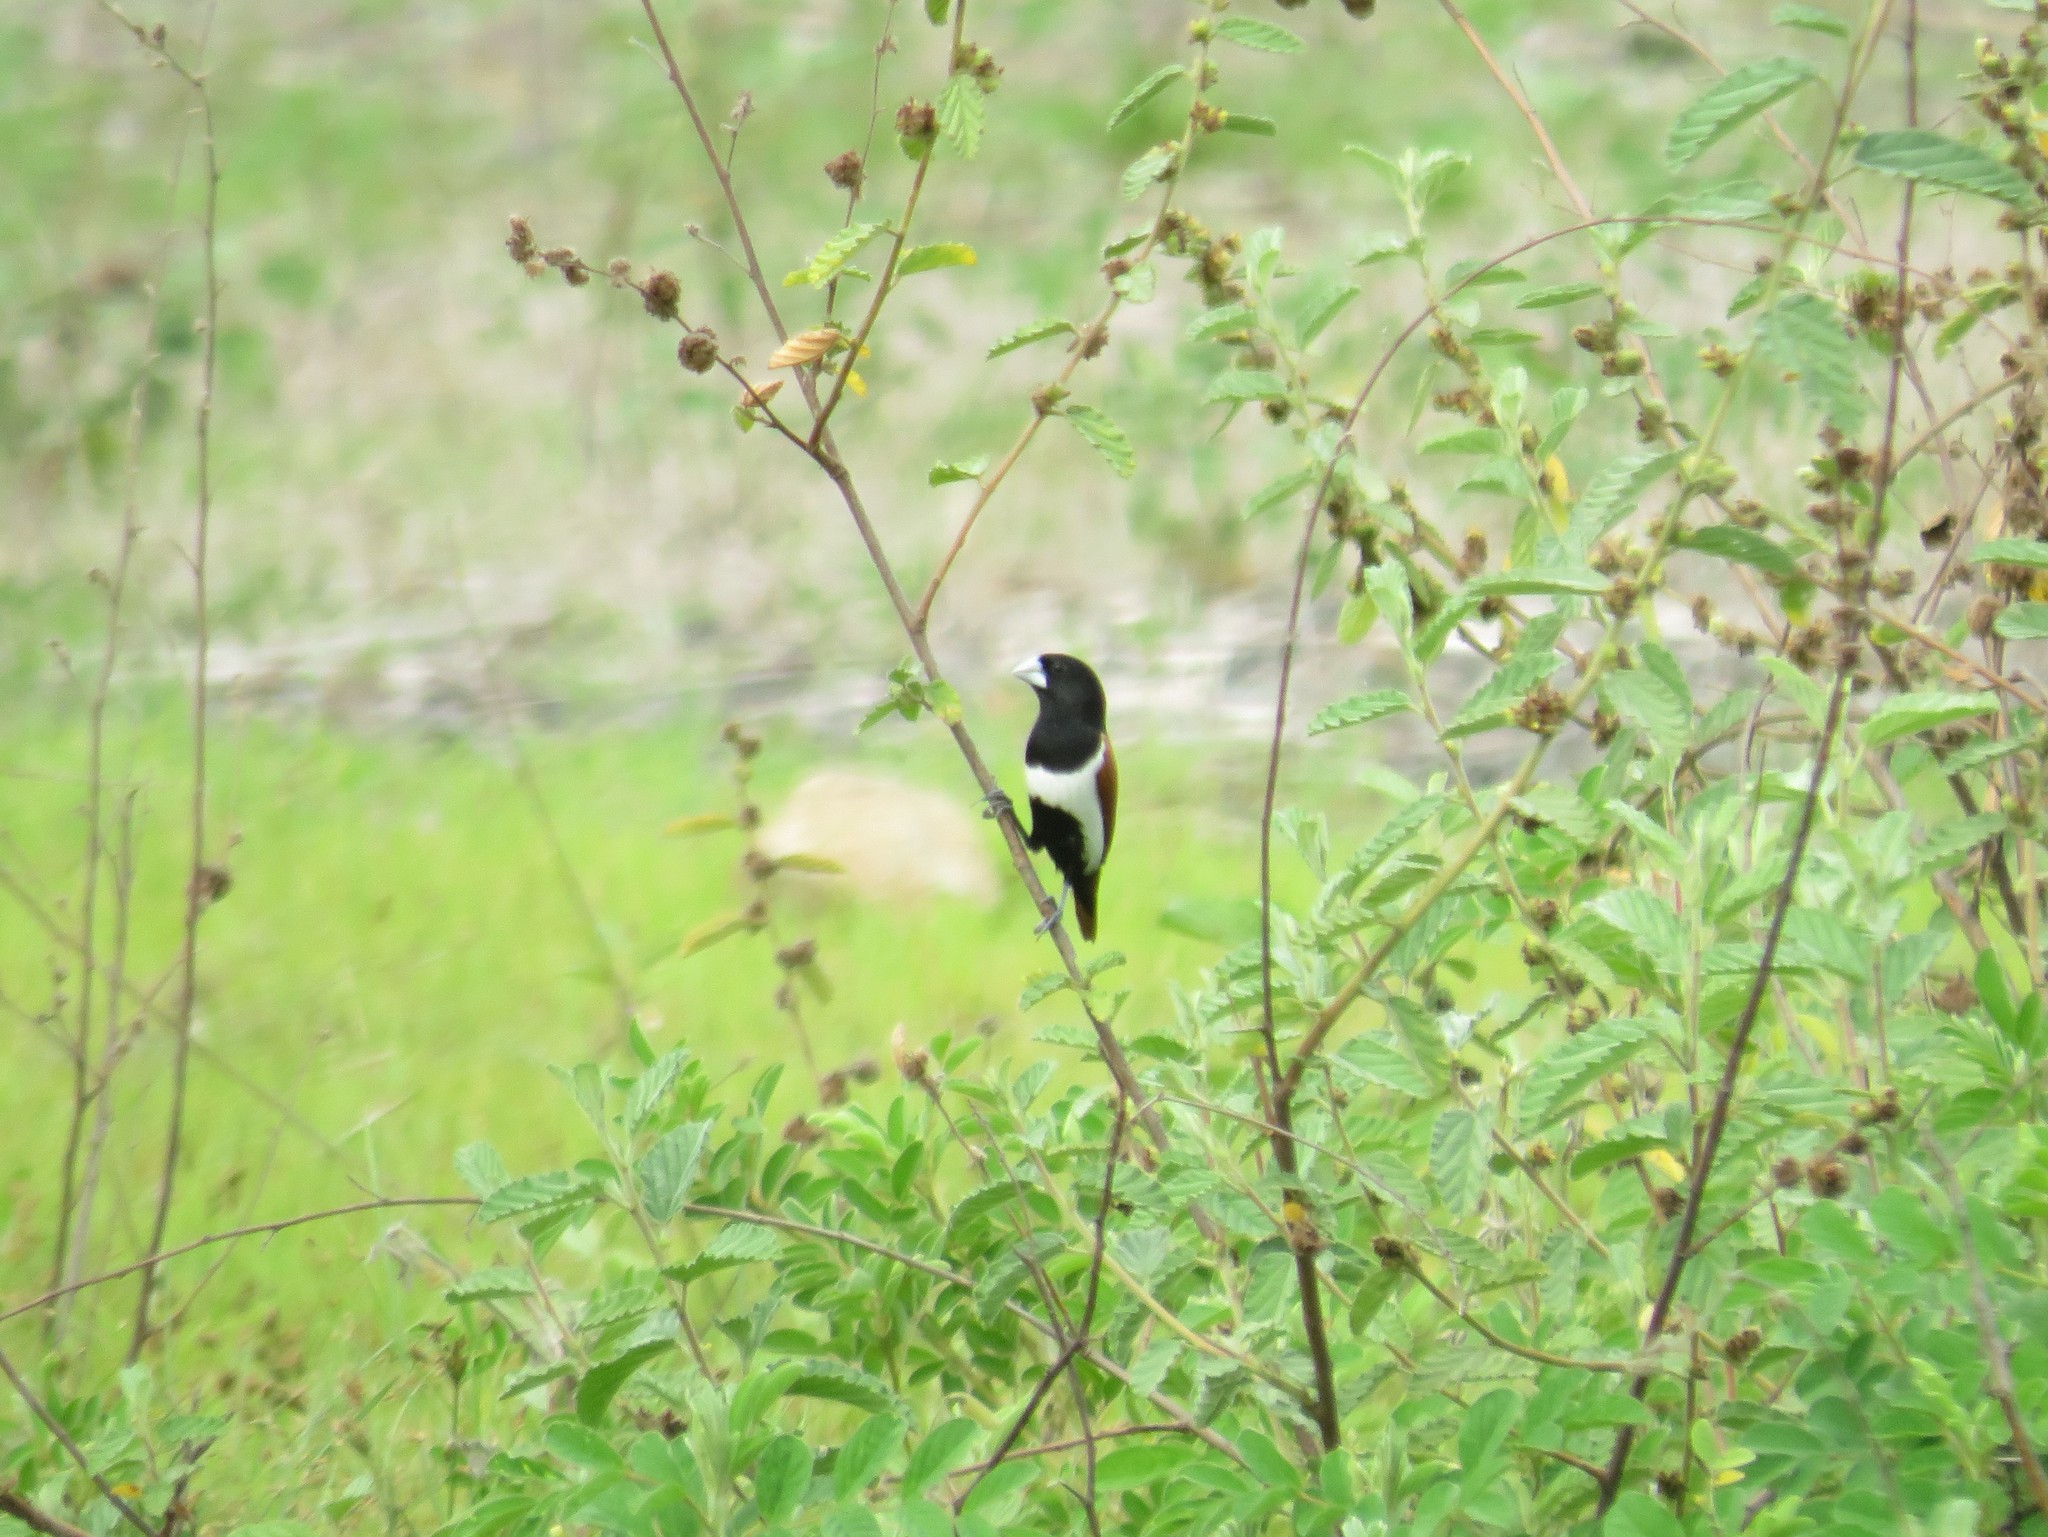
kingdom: Animalia
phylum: Chordata
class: Aves
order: Passeriformes
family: Estrildidae
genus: Lonchura
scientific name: Lonchura malacca
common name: Tricolored munia
